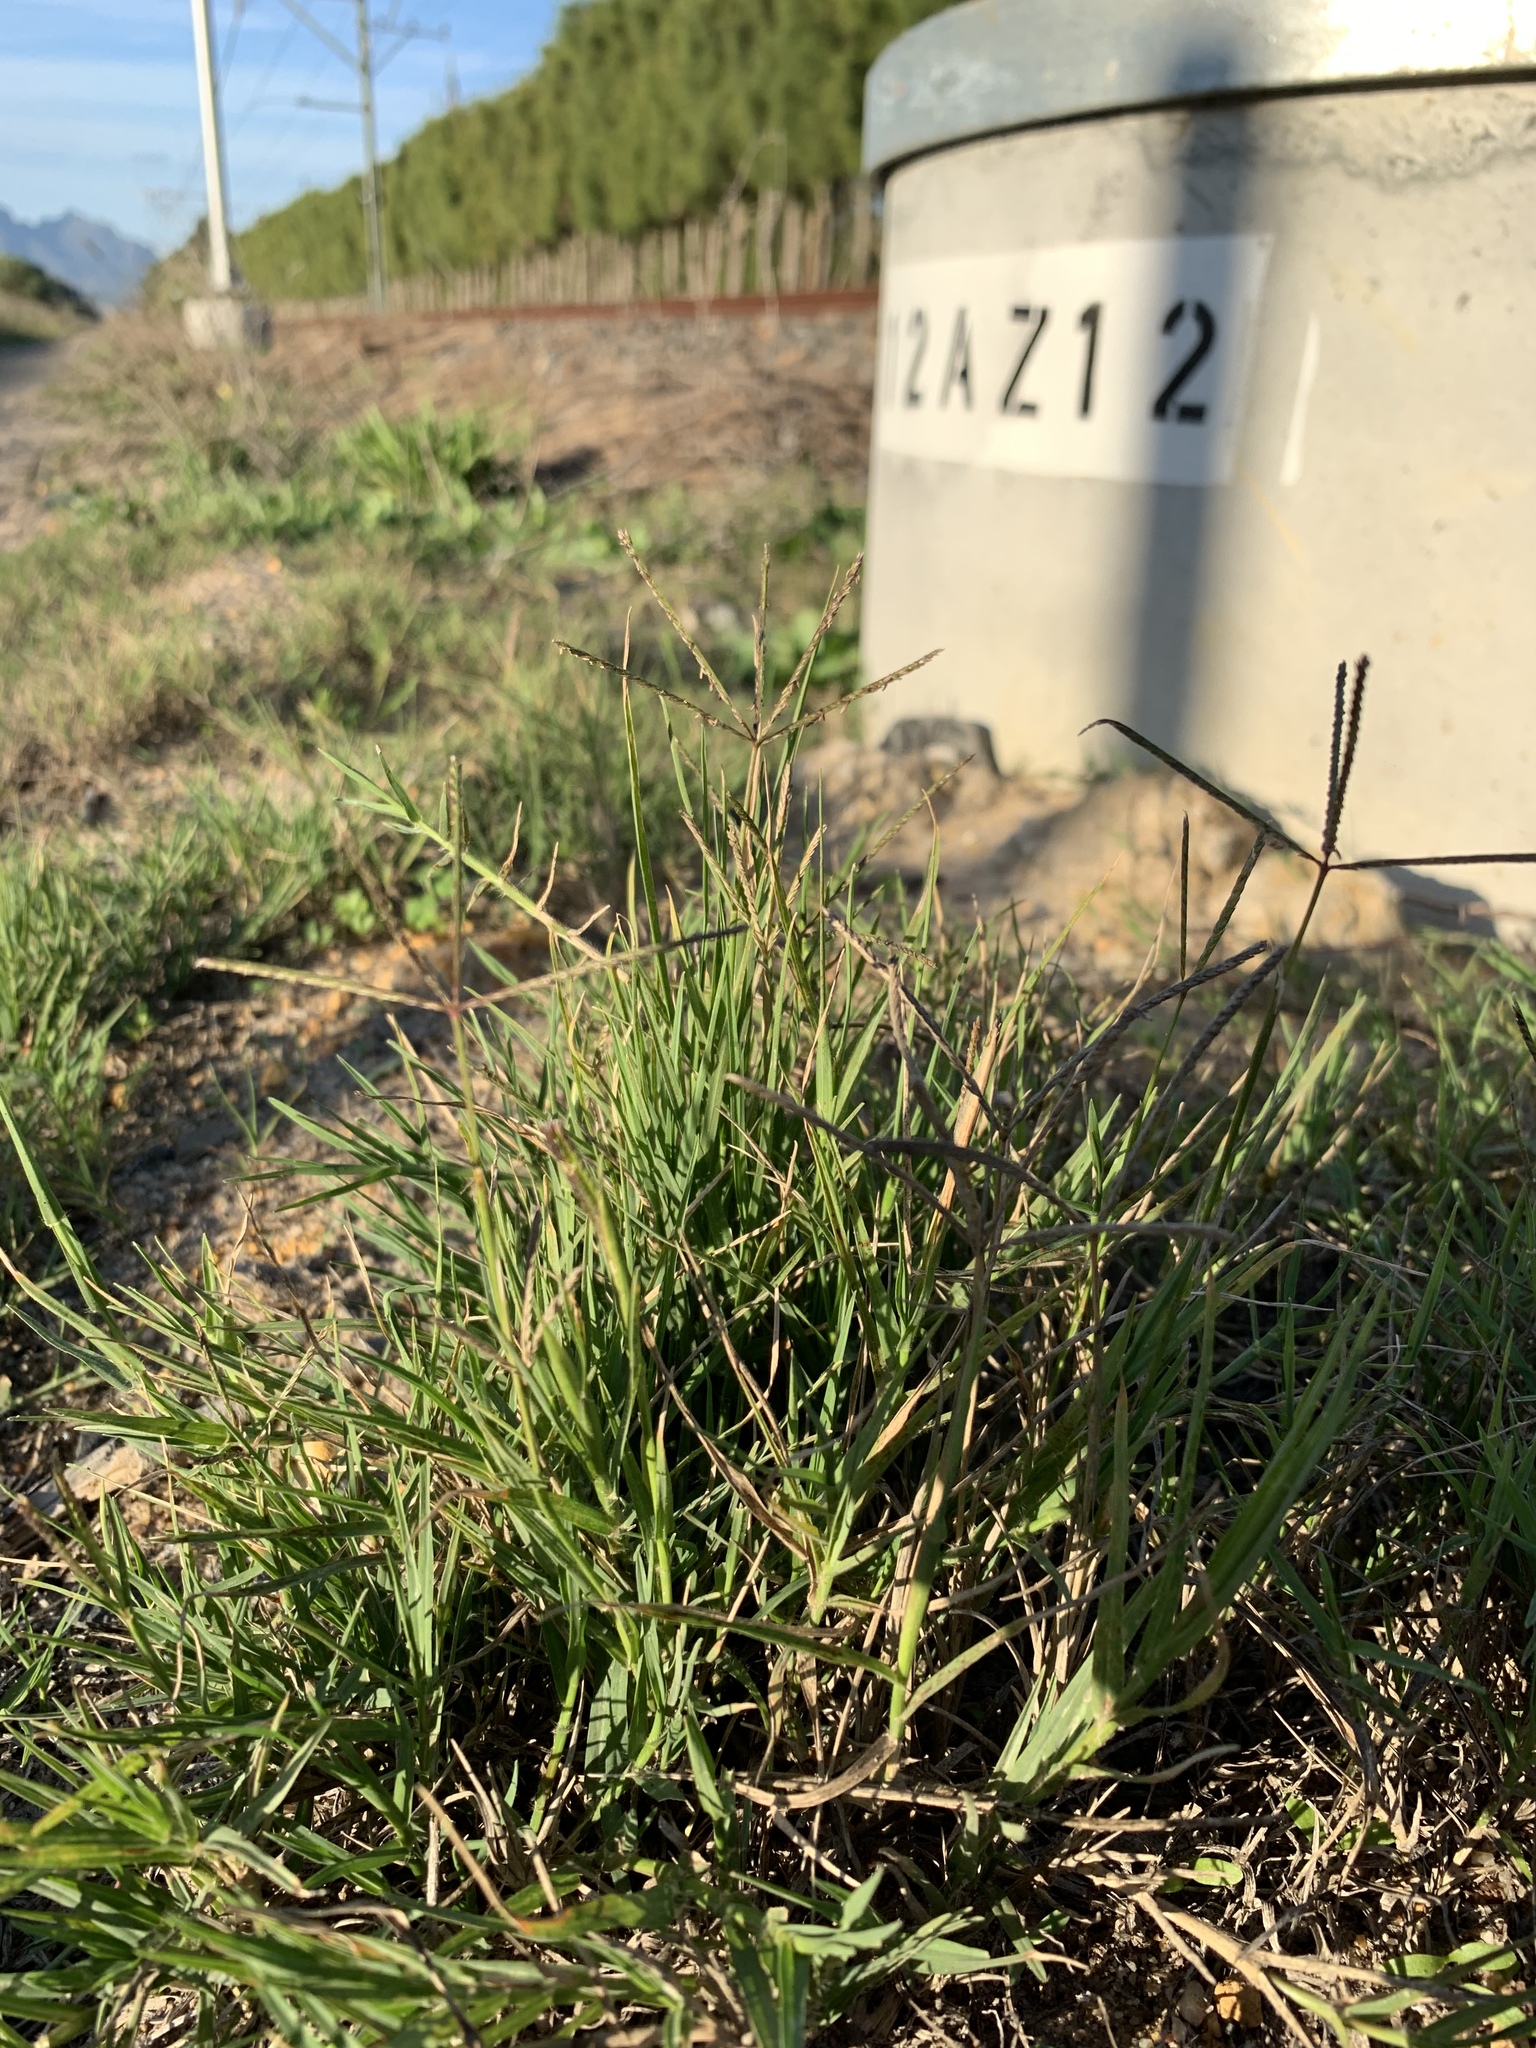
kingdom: Plantae
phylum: Tracheophyta
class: Liliopsida
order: Poales
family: Poaceae
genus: Cynodon
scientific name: Cynodon dactylon
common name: Bermuda grass
